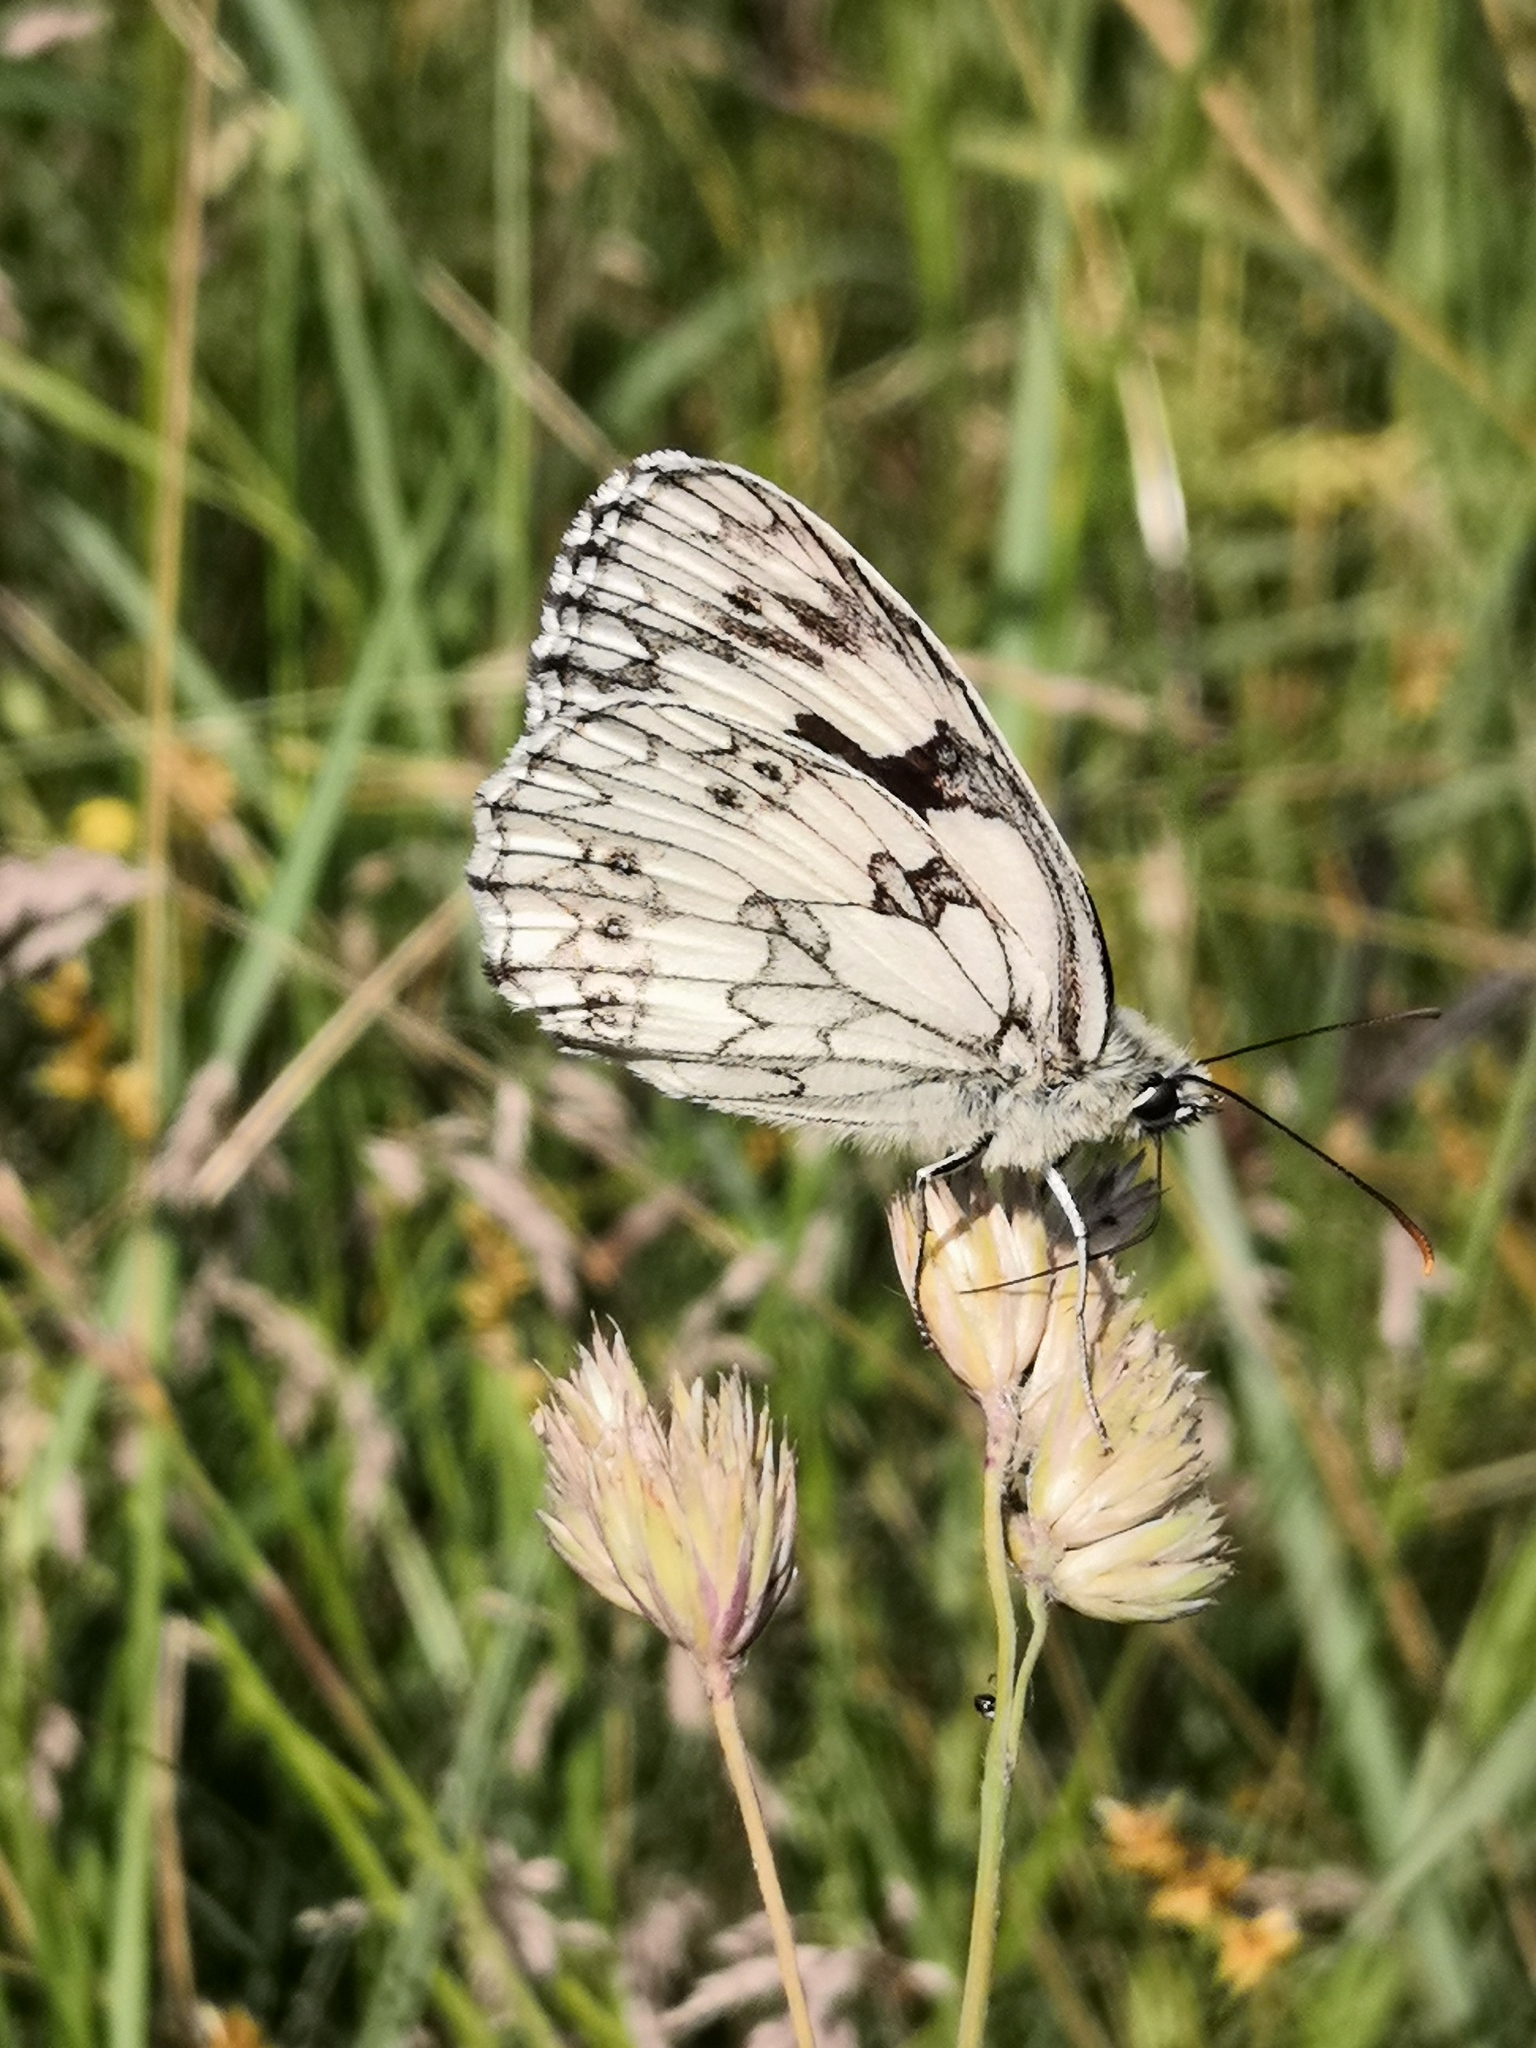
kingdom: Animalia
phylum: Arthropoda
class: Insecta
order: Lepidoptera
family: Nymphalidae
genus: Melanargia
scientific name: Melanargia galathea
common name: Marbled white
